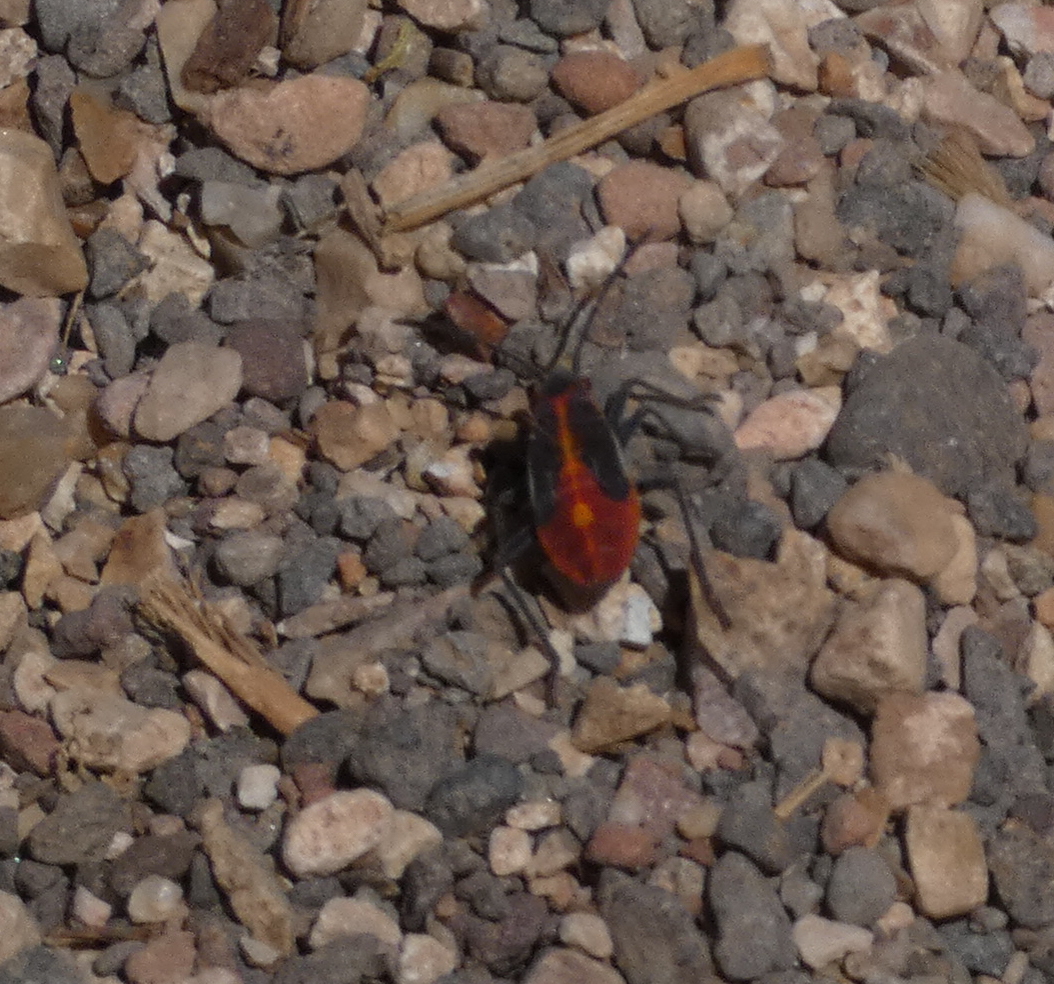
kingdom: Animalia
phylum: Arthropoda
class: Insecta
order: Hemiptera
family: Rhopalidae
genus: Boisea
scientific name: Boisea trivittata
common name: Boxelder bug
